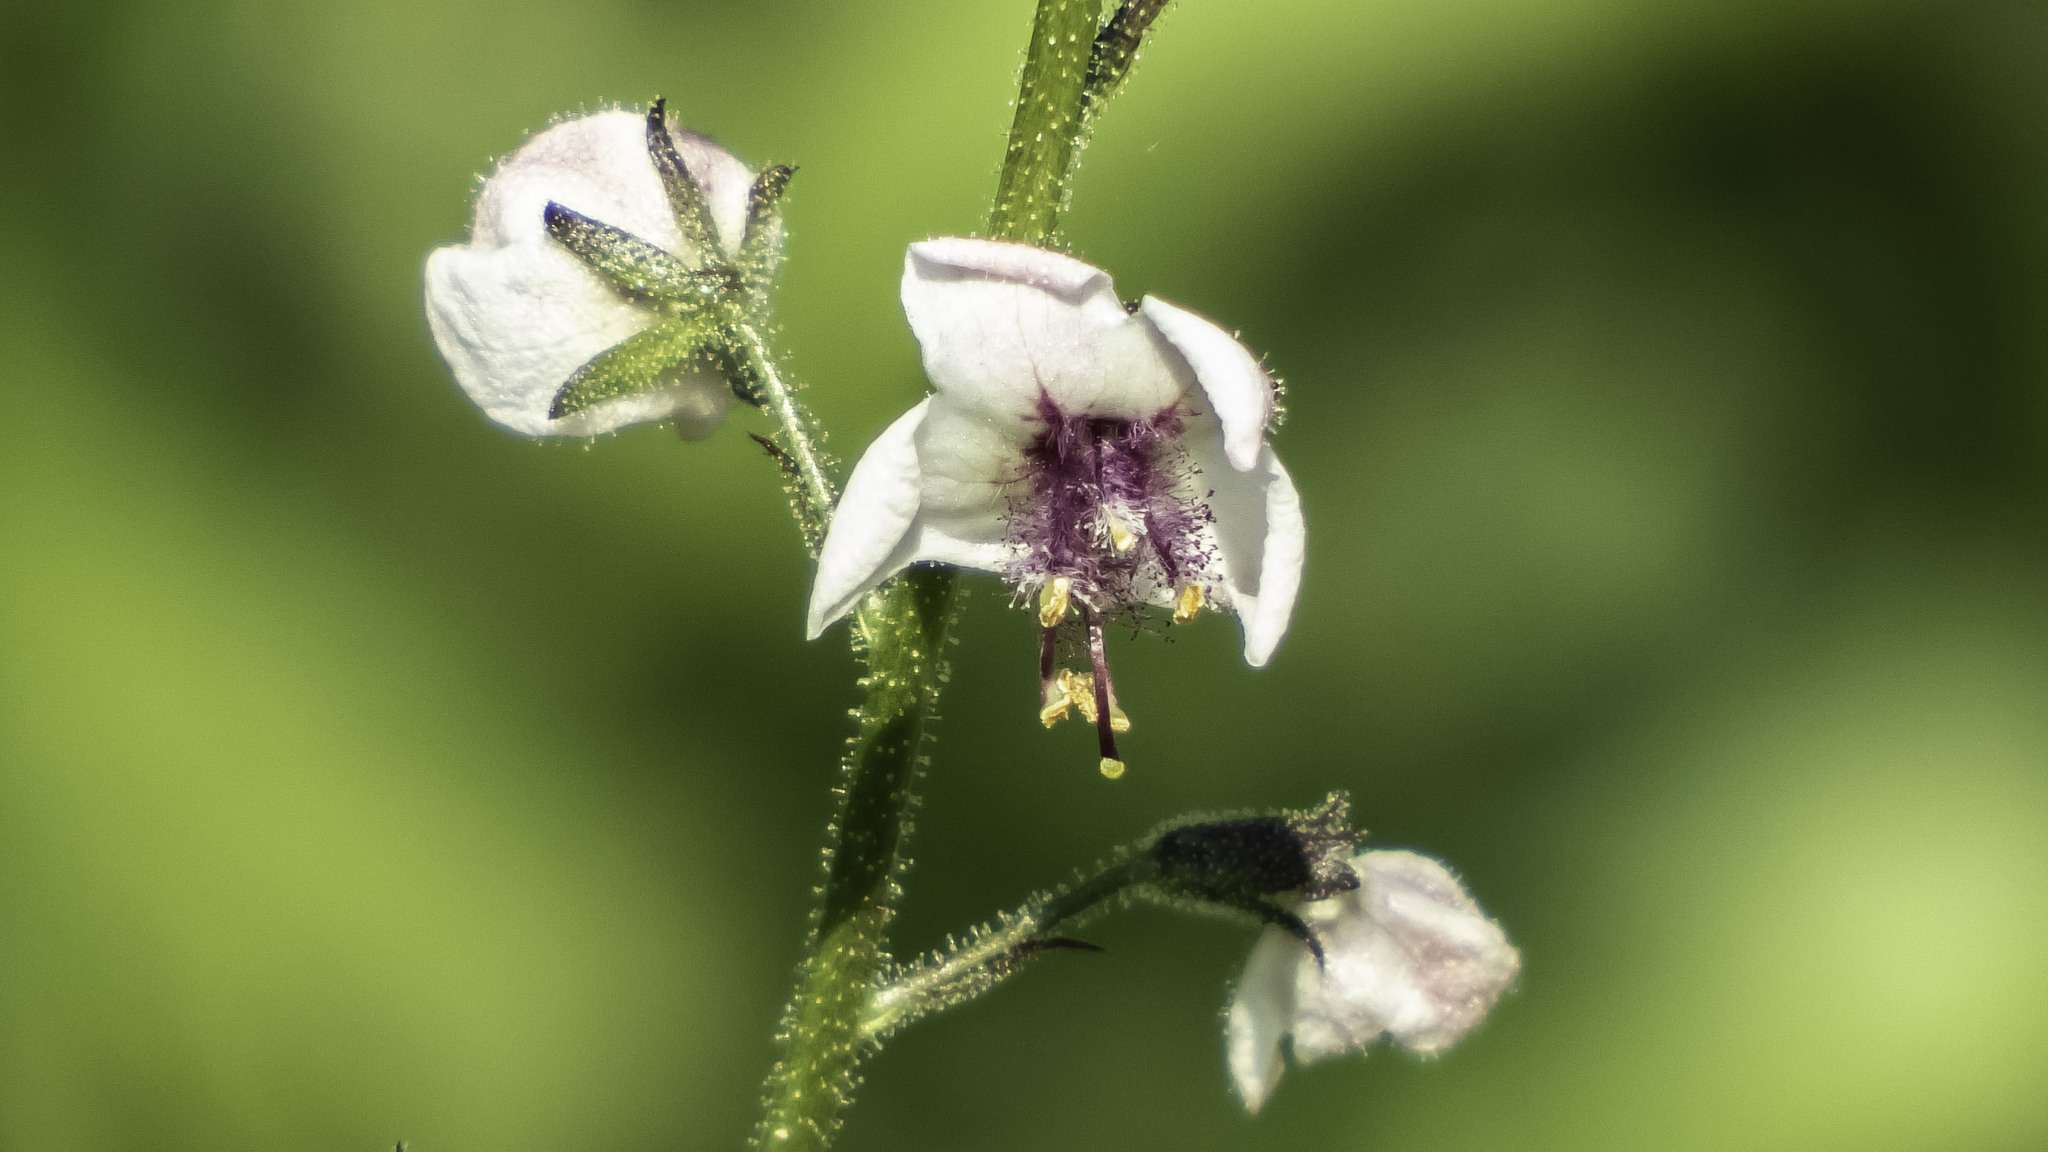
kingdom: Plantae
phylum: Tracheophyta
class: Magnoliopsida
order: Lamiales
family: Scrophulariaceae
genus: Verbascum
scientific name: Verbascum blattaria
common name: Moth mullein
